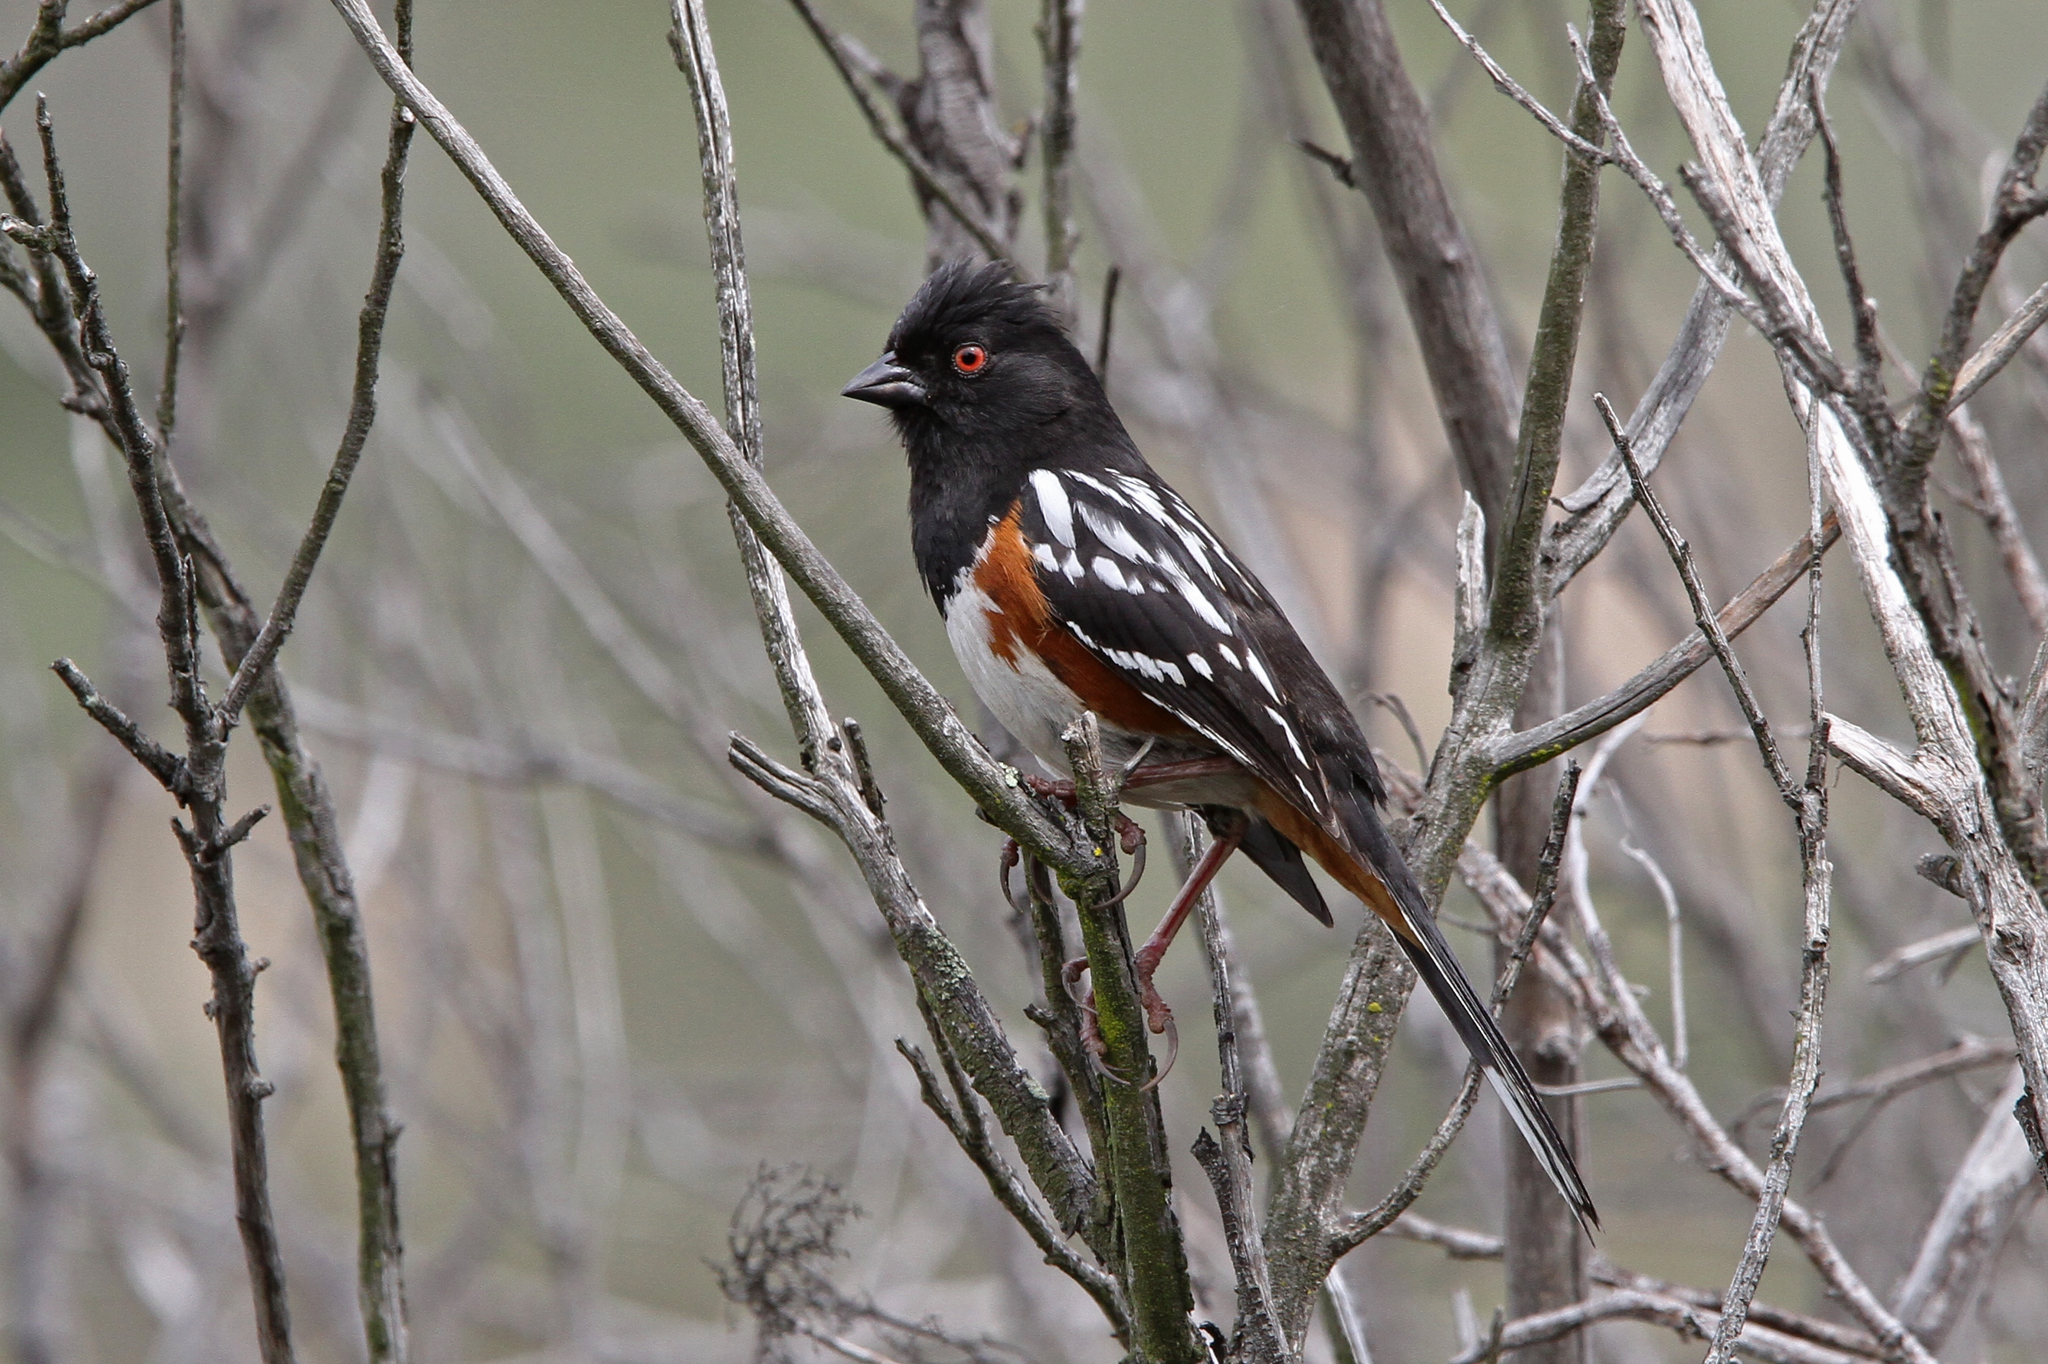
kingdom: Animalia
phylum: Chordata
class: Aves
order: Passeriformes
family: Passerellidae
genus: Pipilo
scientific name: Pipilo maculatus
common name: Spotted towhee
